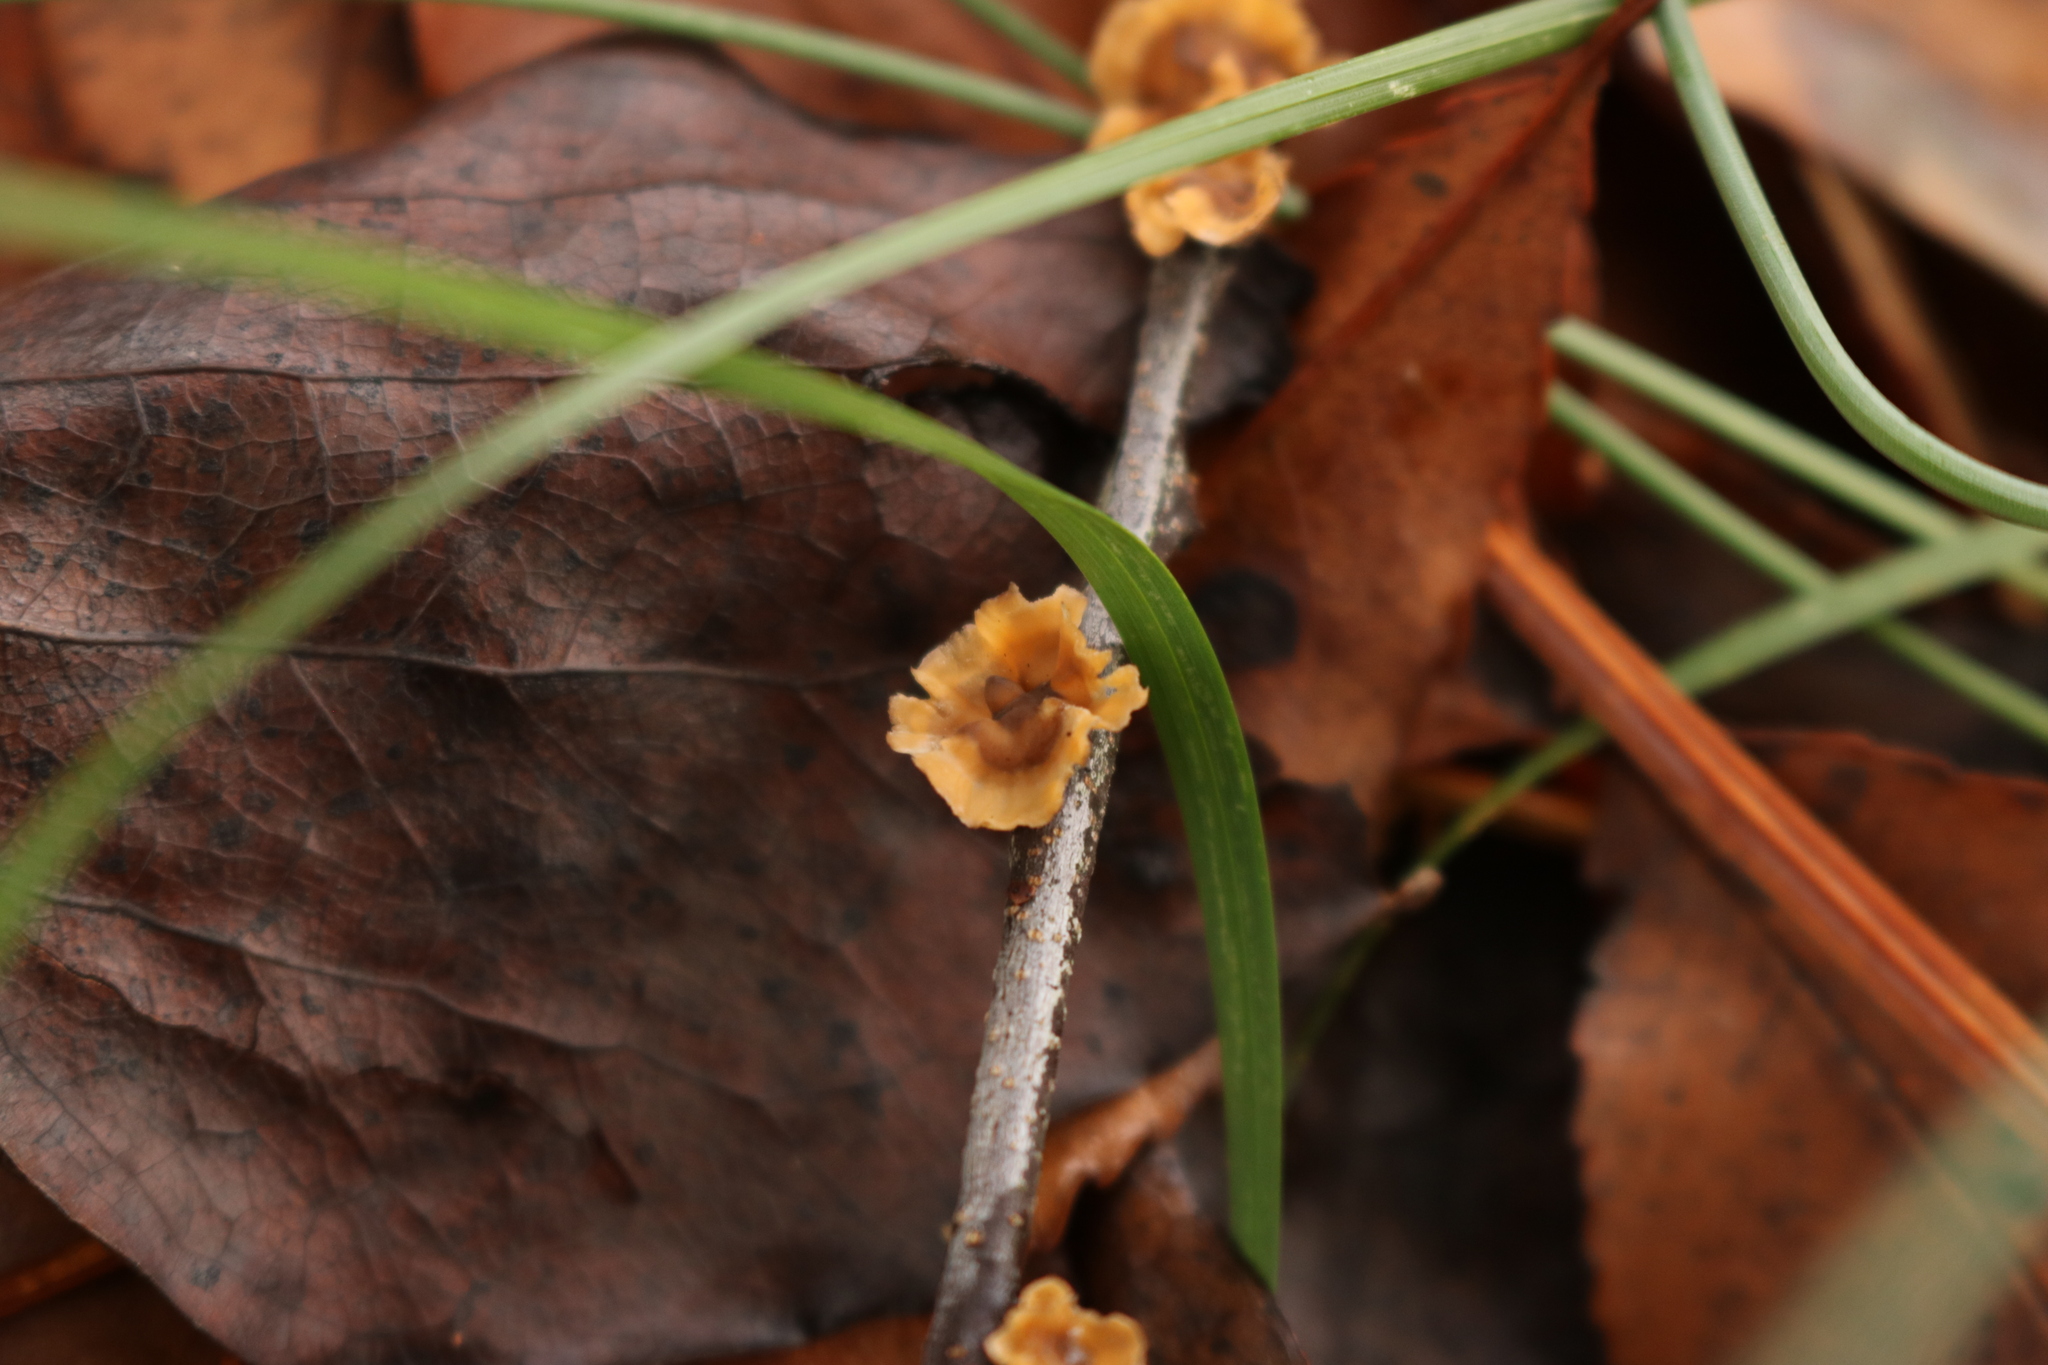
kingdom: Fungi
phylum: Basidiomycota
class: Agaricomycetes
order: Russulales
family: Stereaceae
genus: Stereum
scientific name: Stereum complicatum
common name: Crowded parchment
